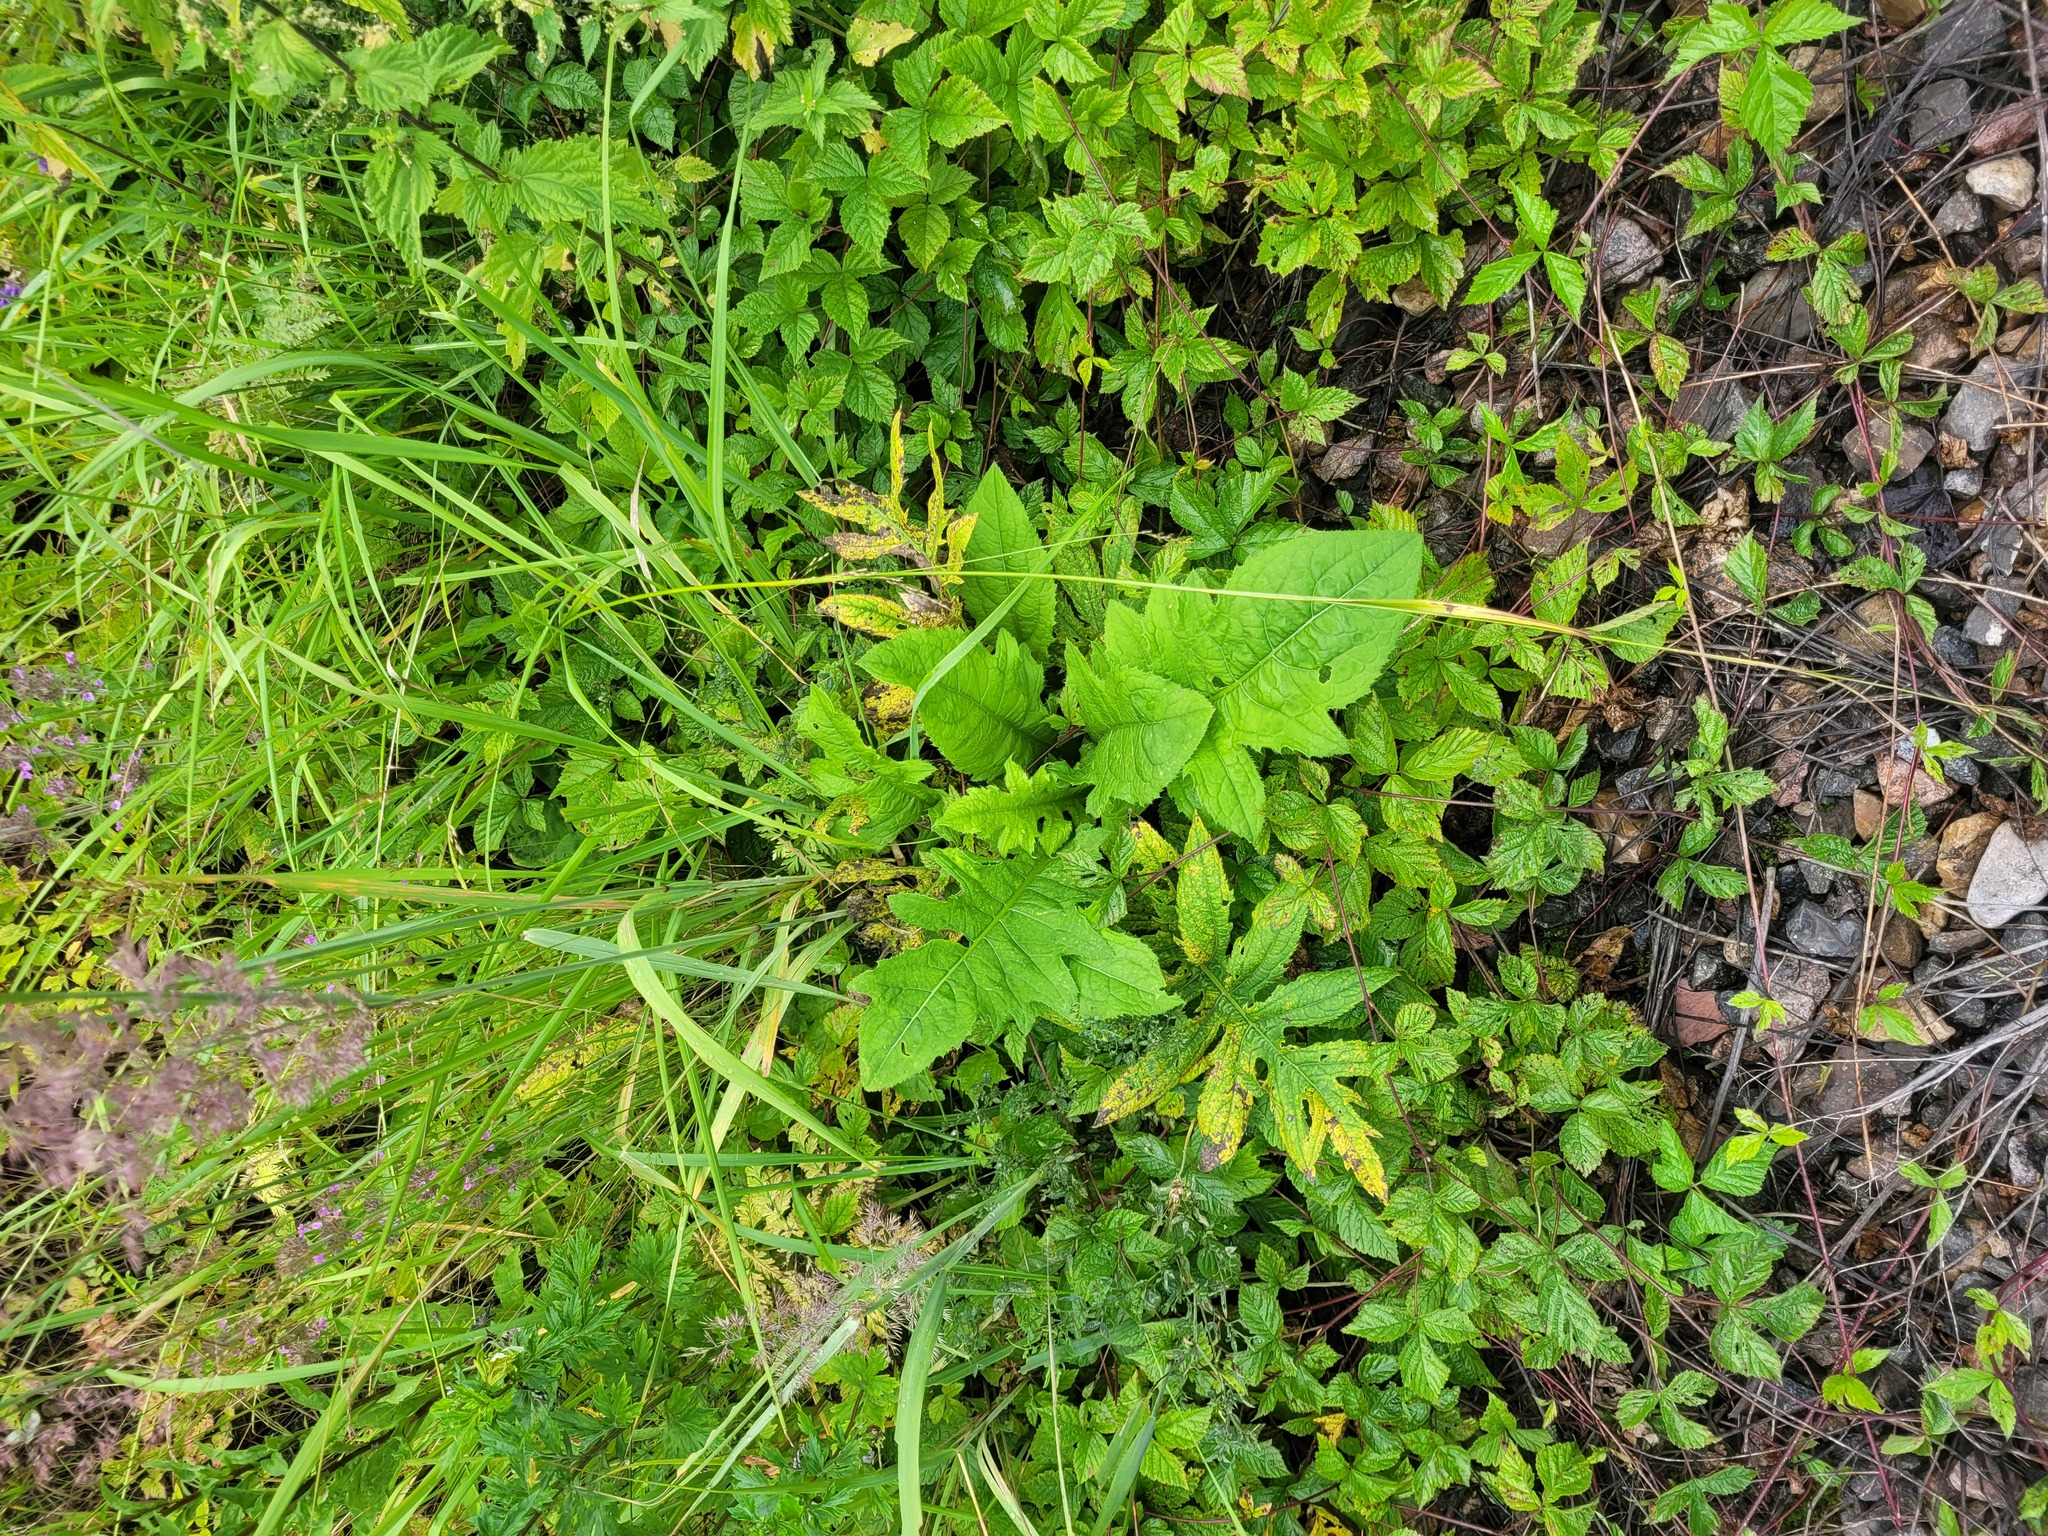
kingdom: Plantae
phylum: Tracheophyta
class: Magnoliopsida
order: Asterales
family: Asteraceae
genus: Cirsium
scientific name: Cirsium oleraceum
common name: Cabbage thistle
